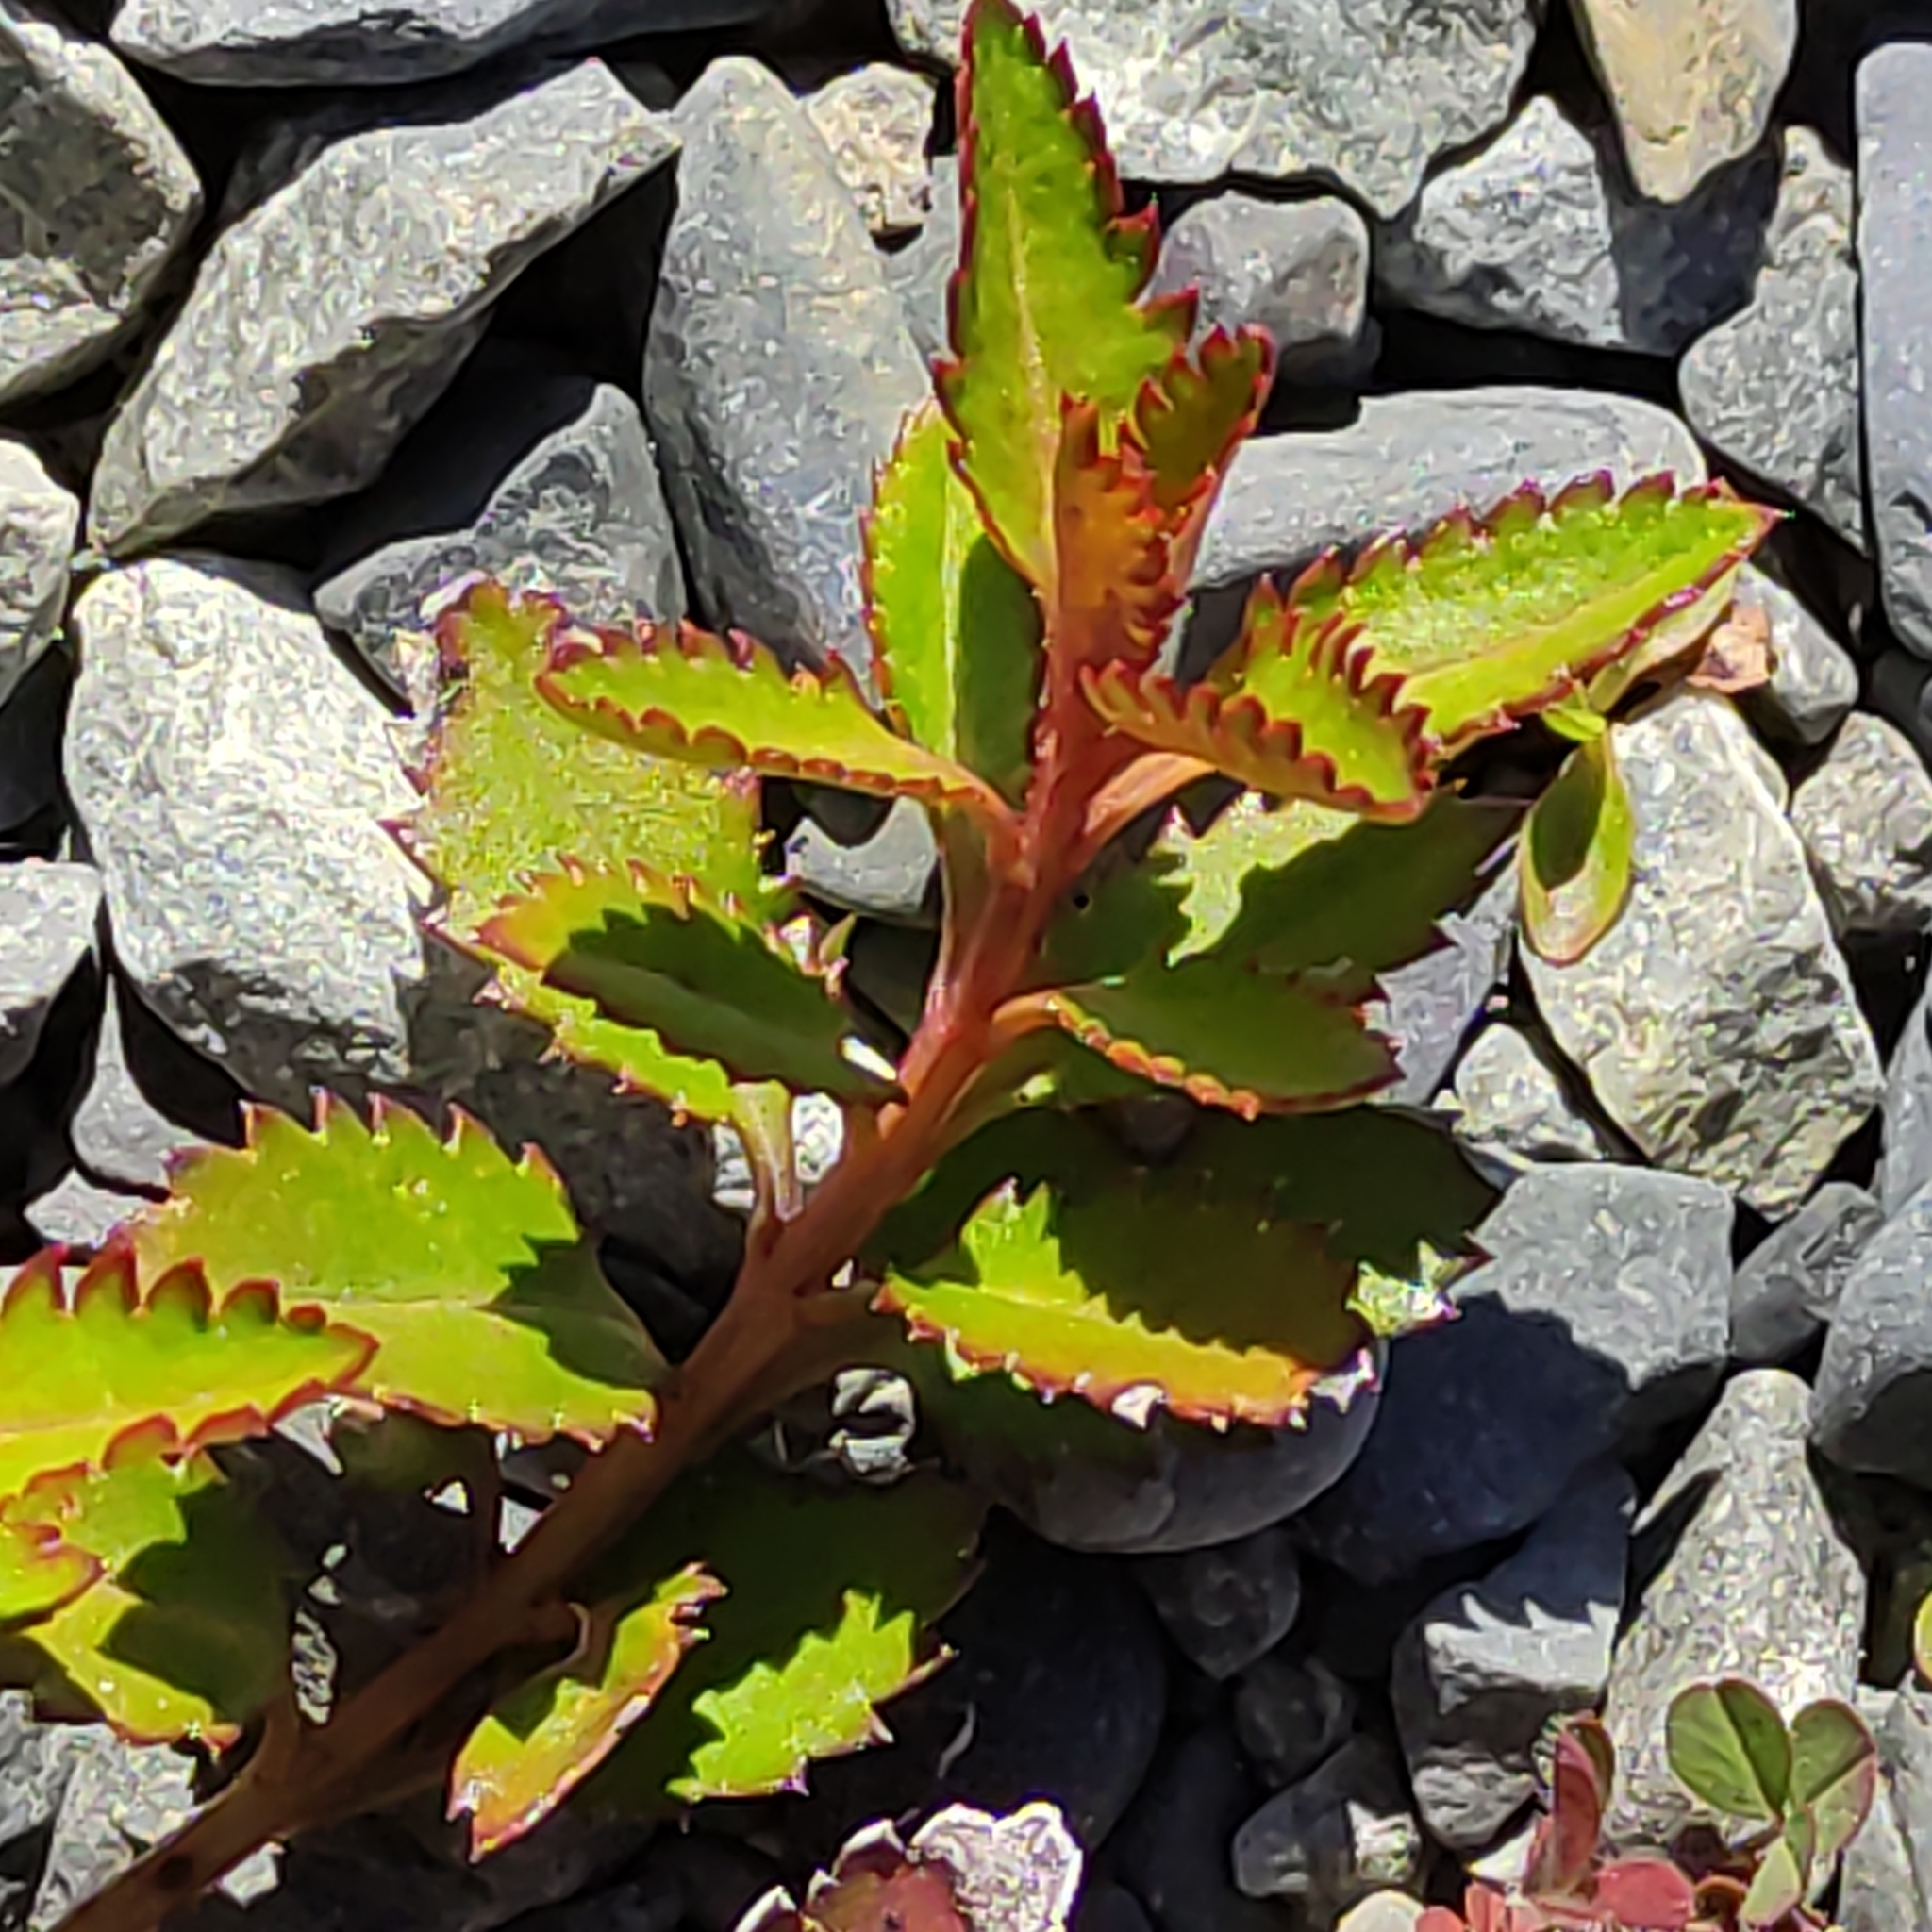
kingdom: Plantae
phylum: Tracheophyta
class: Magnoliopsida
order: Saxifragales
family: Haloragaceae
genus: Haloragis
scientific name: Haloragis erecta
